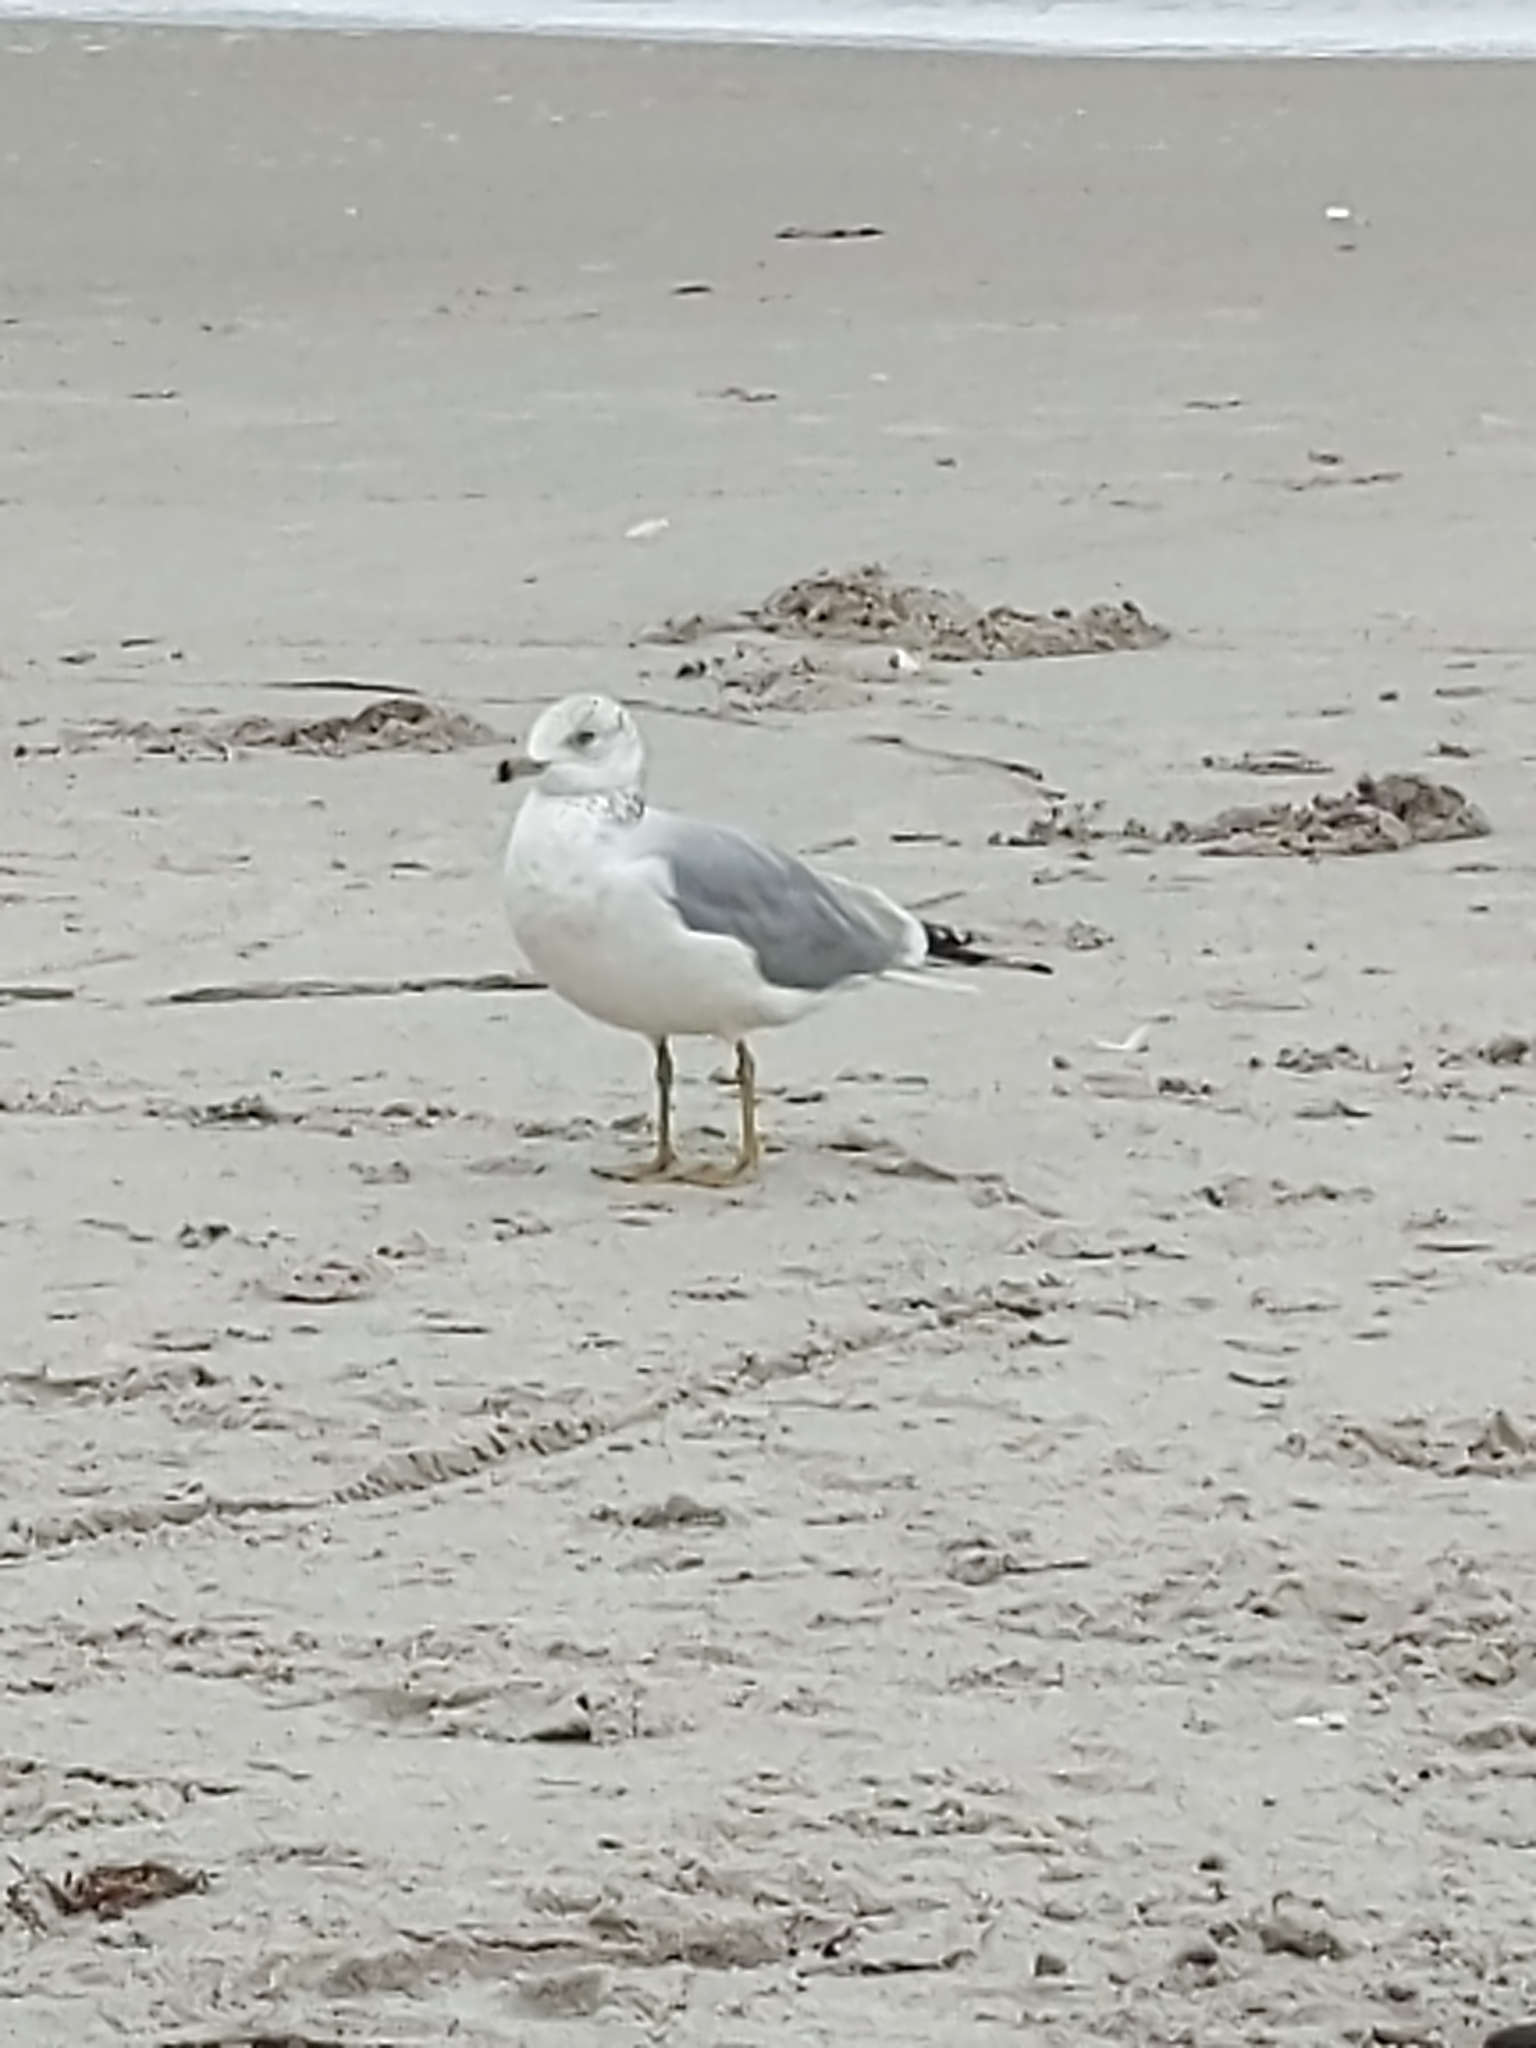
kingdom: Animalia
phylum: Chordata
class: Aves
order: Charadriiformes
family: Laridae
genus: Larus
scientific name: Larus delawarensis
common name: Ring-billed gull
